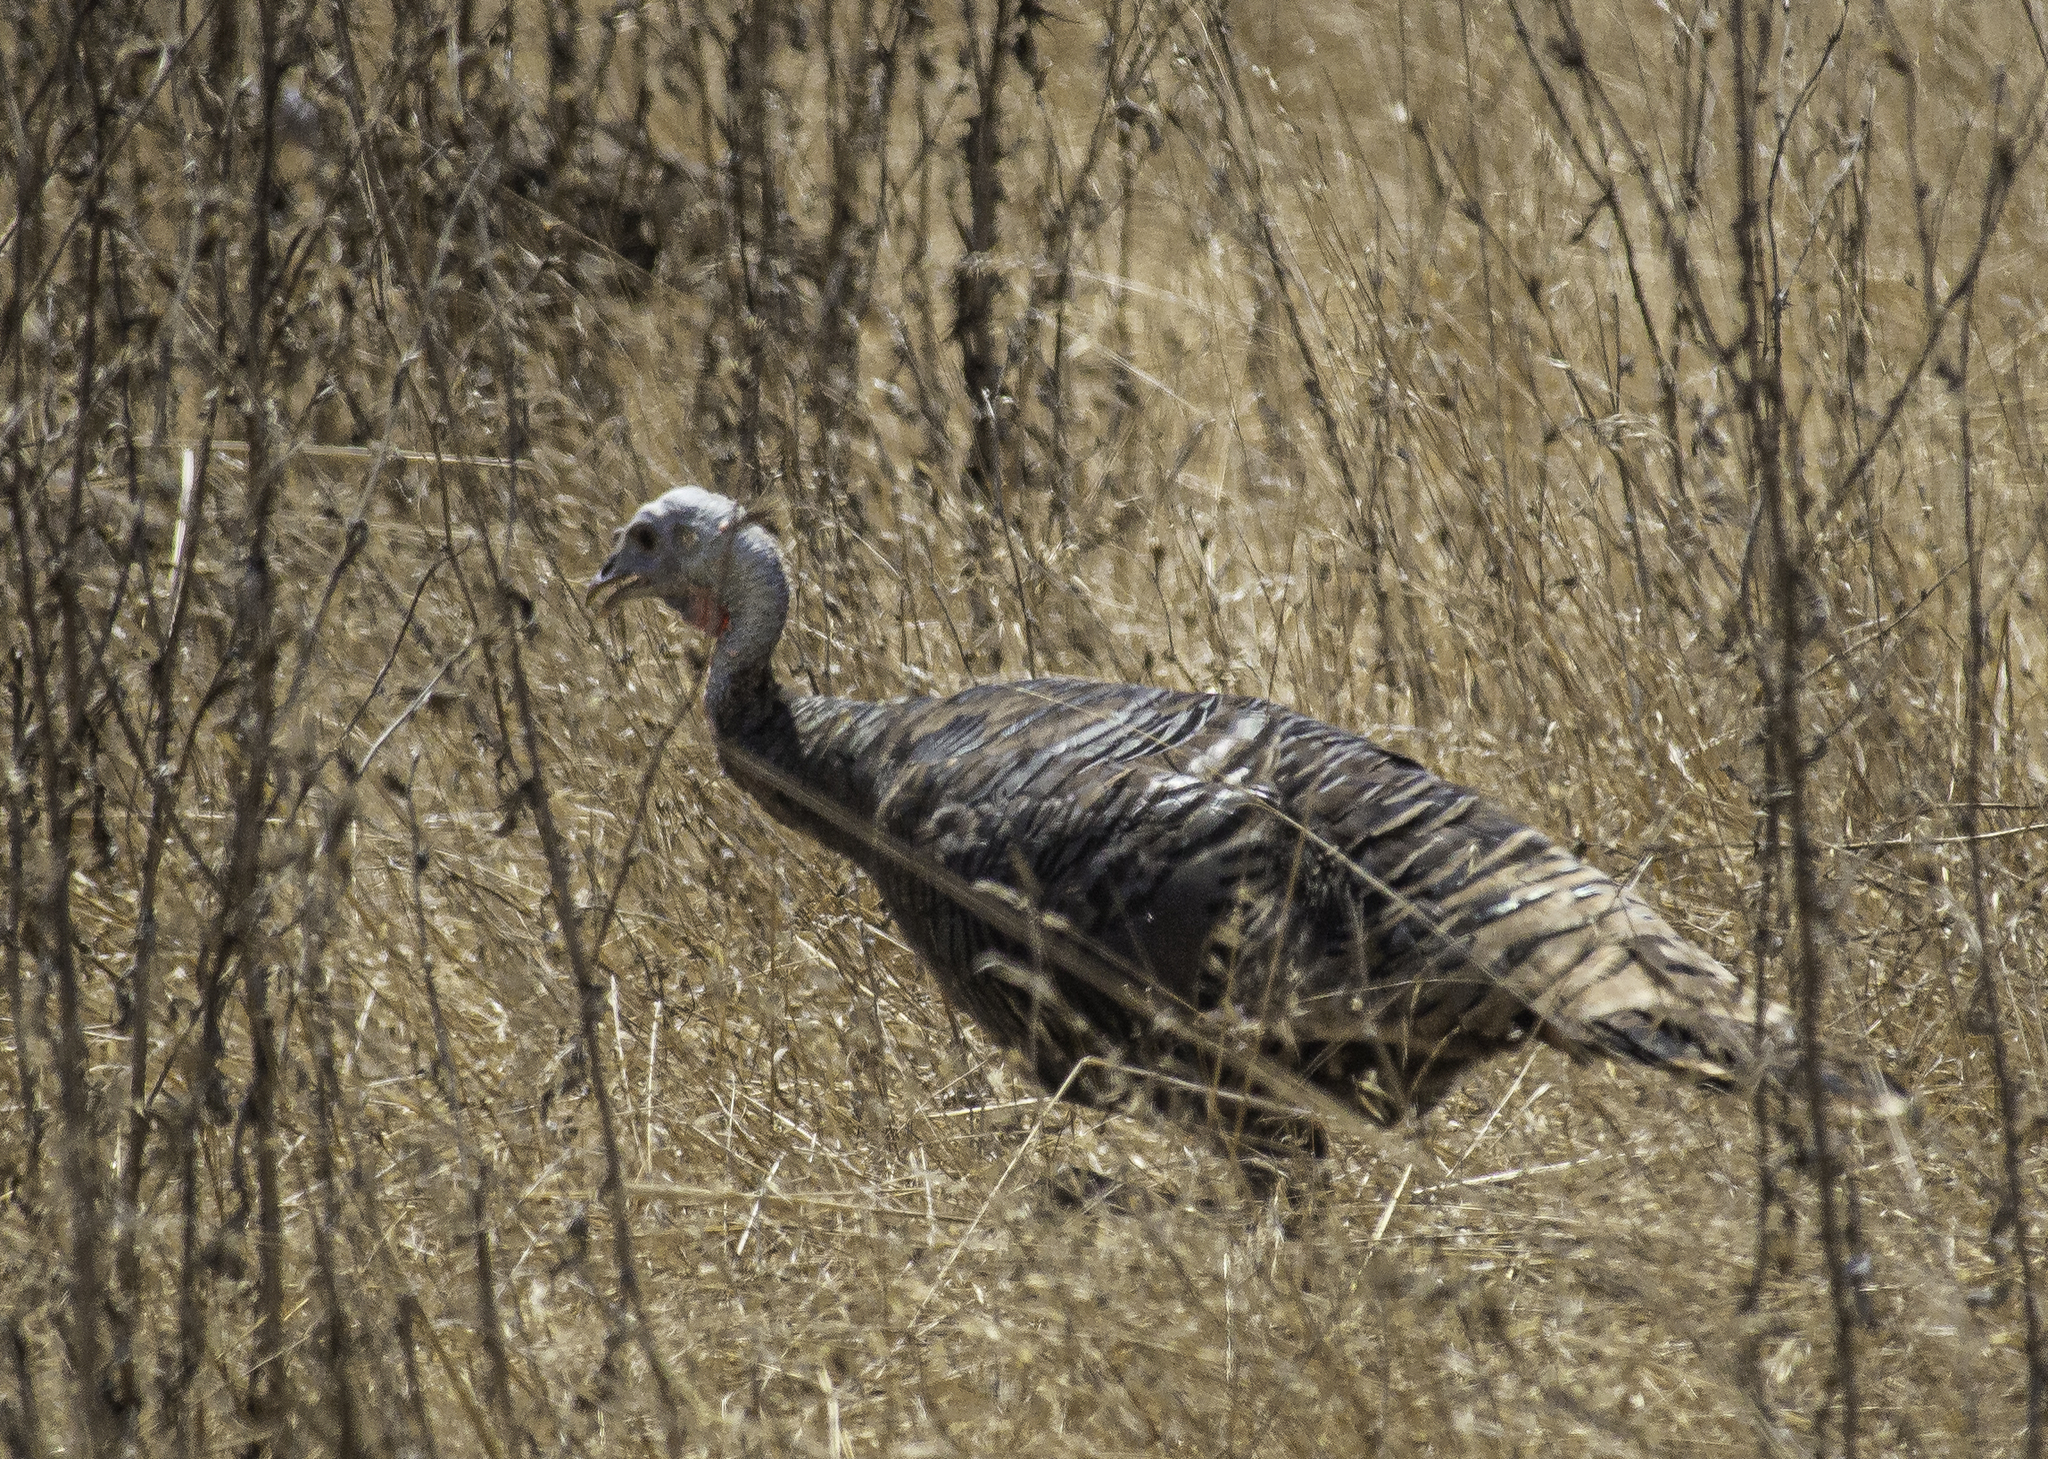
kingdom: Animalia
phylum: Chordata
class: Aves
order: Galliformes
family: Phasianidae
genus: Meleagris
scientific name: Meleagris gallopavo
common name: Wild turkey
